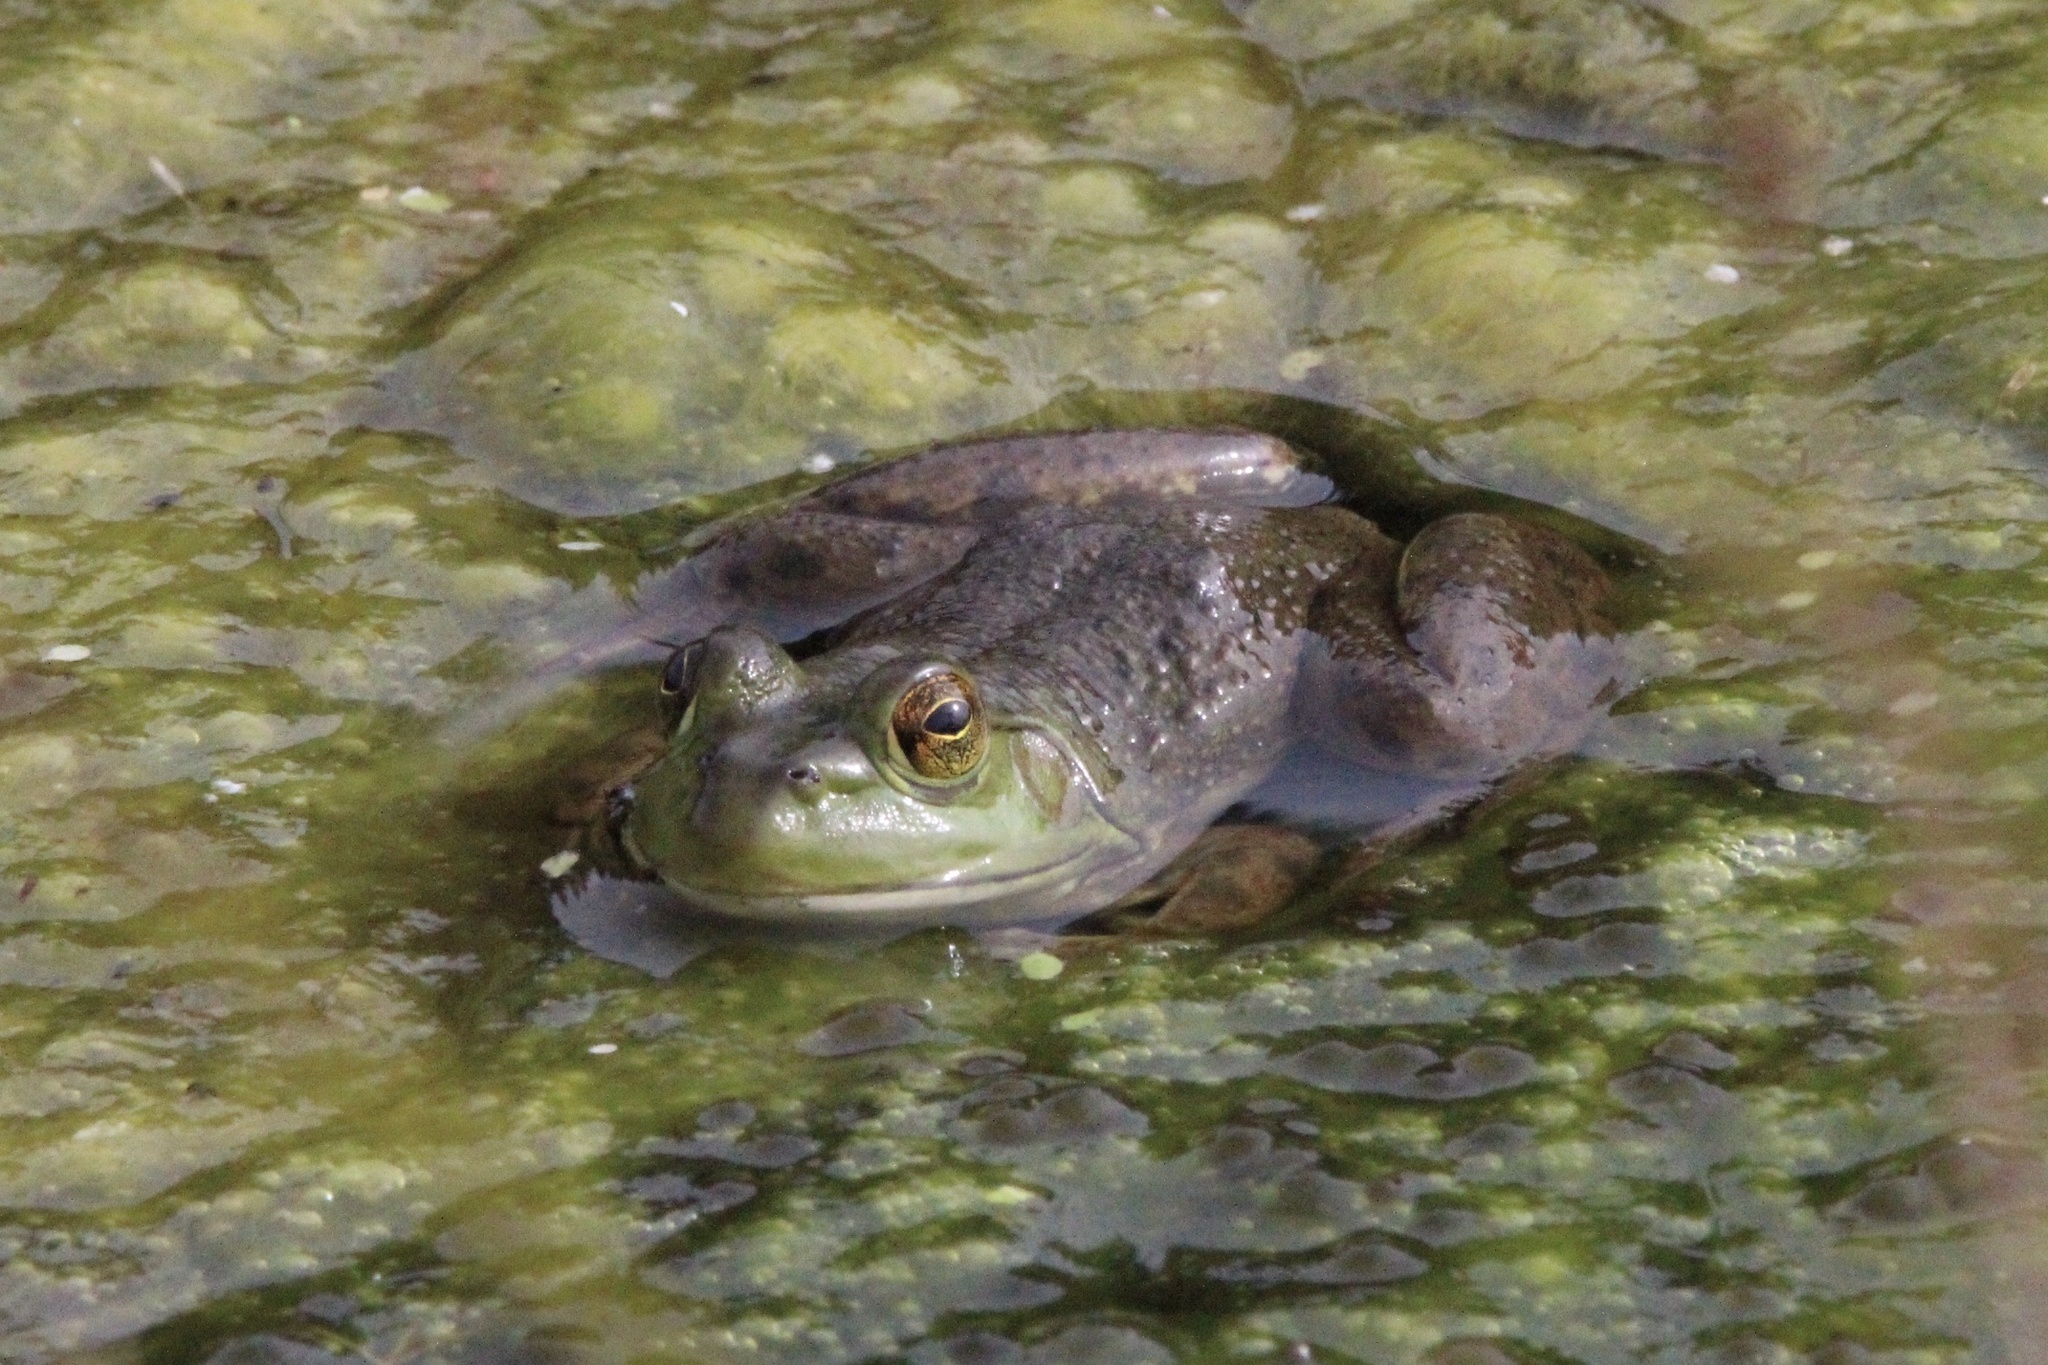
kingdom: Animalia
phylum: Chordata
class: Amphibia
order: Anura
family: Ranidae
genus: Lithobates
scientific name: Lithobates catesbeianus
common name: American bullfrog
